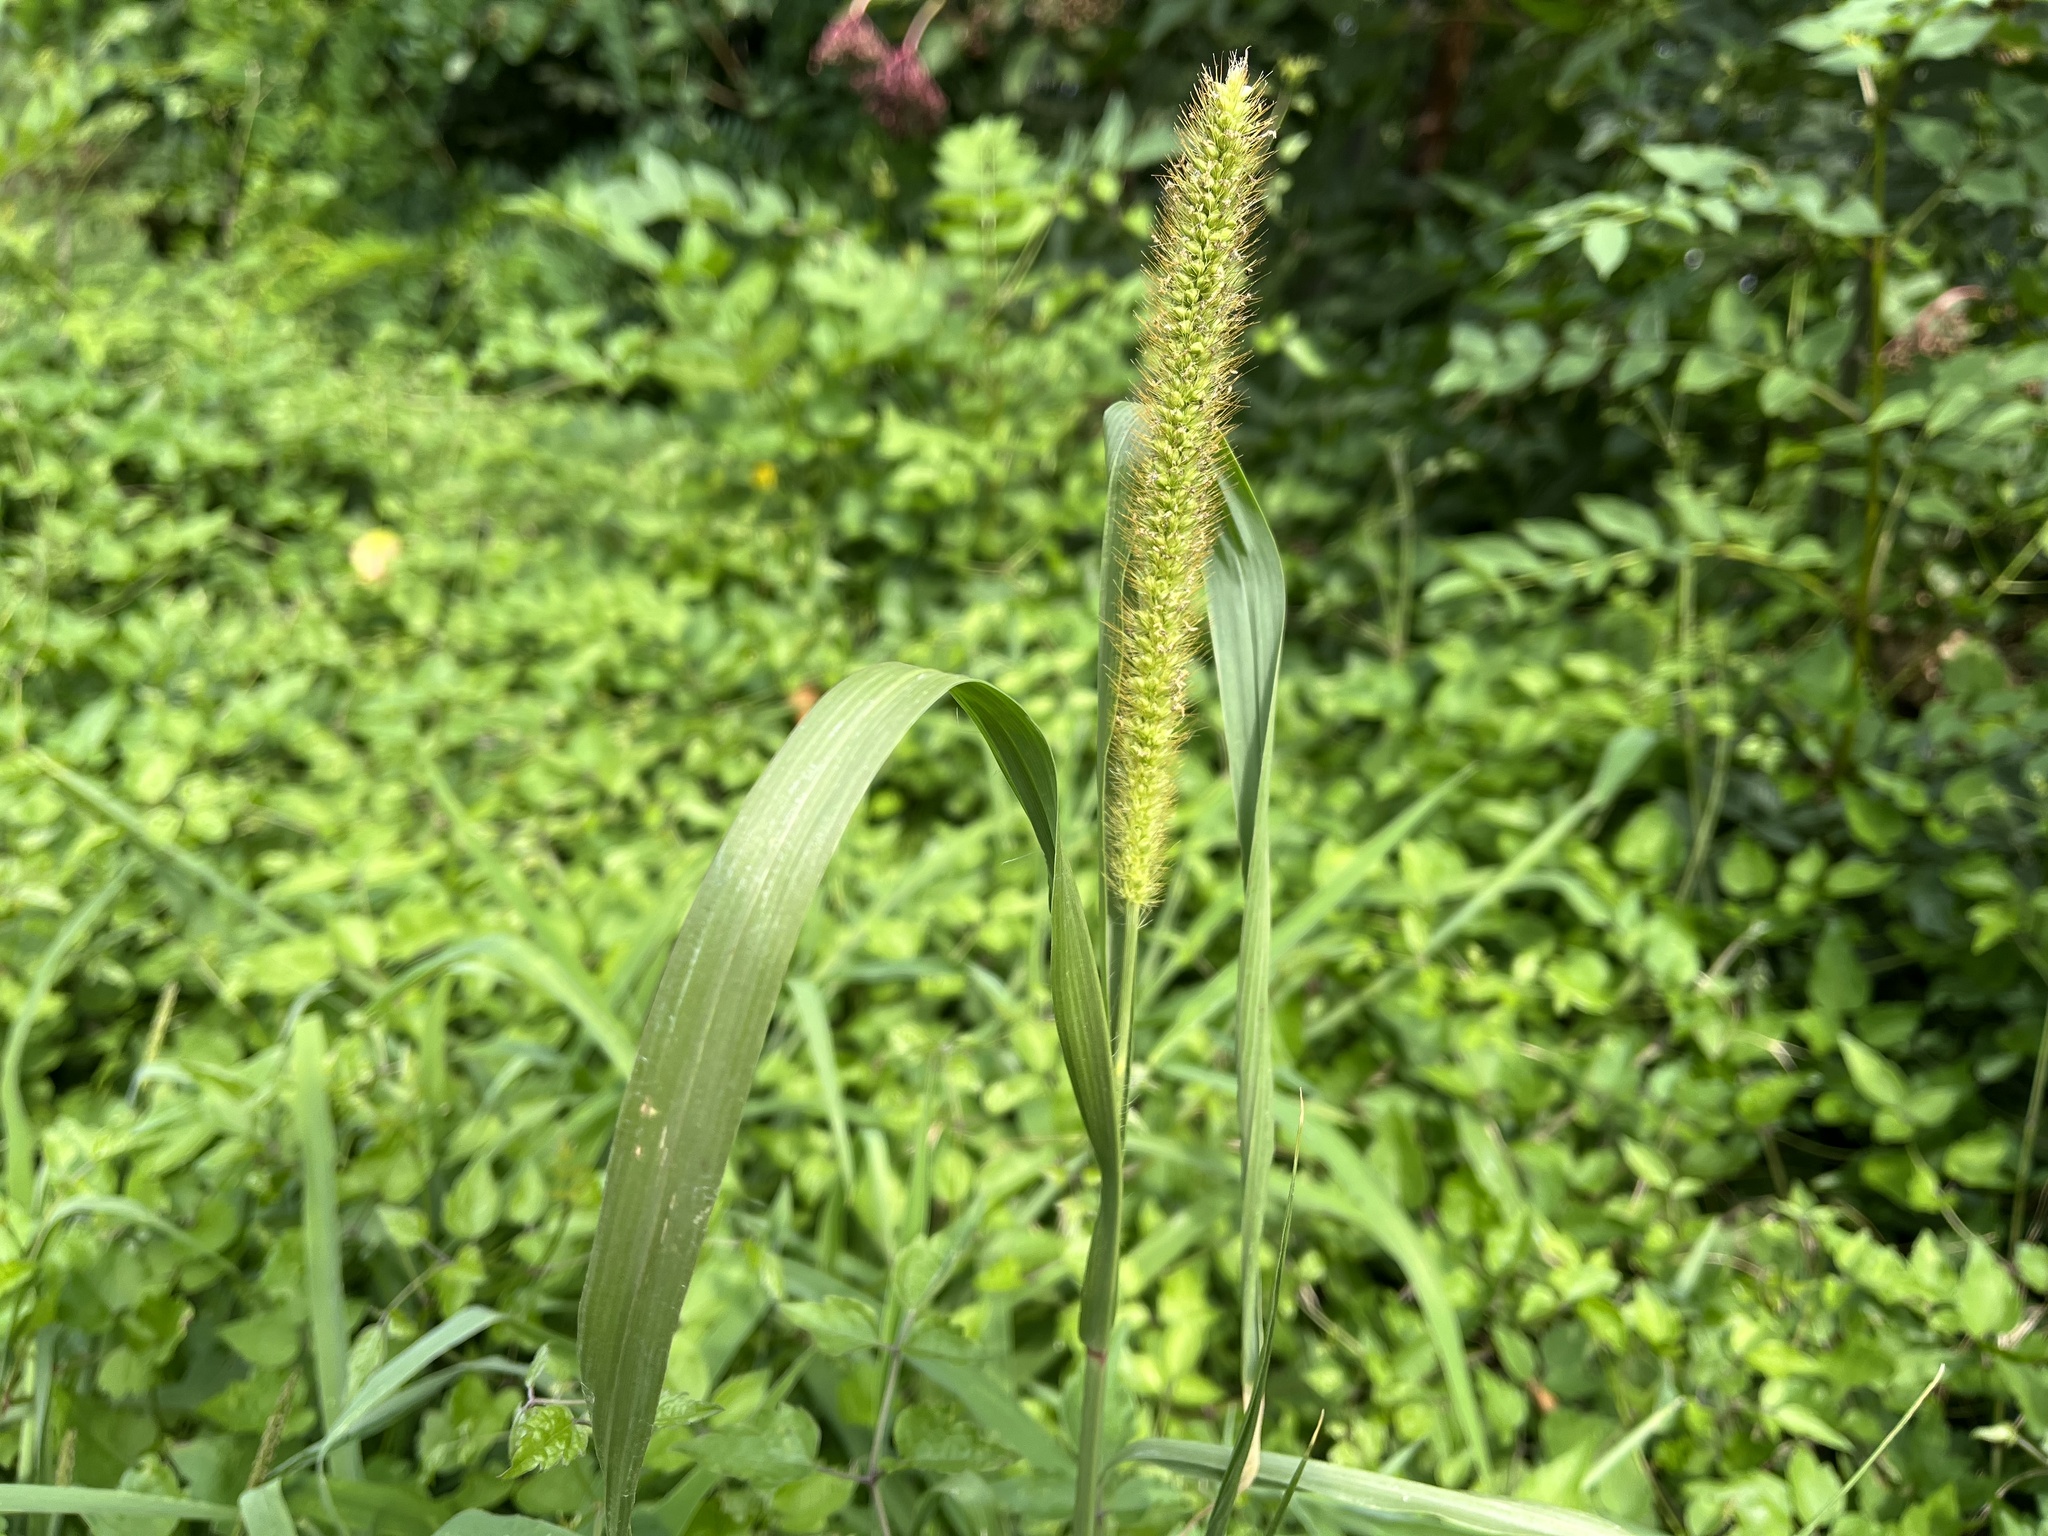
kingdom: Plantae
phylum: Tracheophyta
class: Liliopsida
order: Poales
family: Poaceae
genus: Setaria
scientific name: Setaria pumila
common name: Yellow bristle-grass
